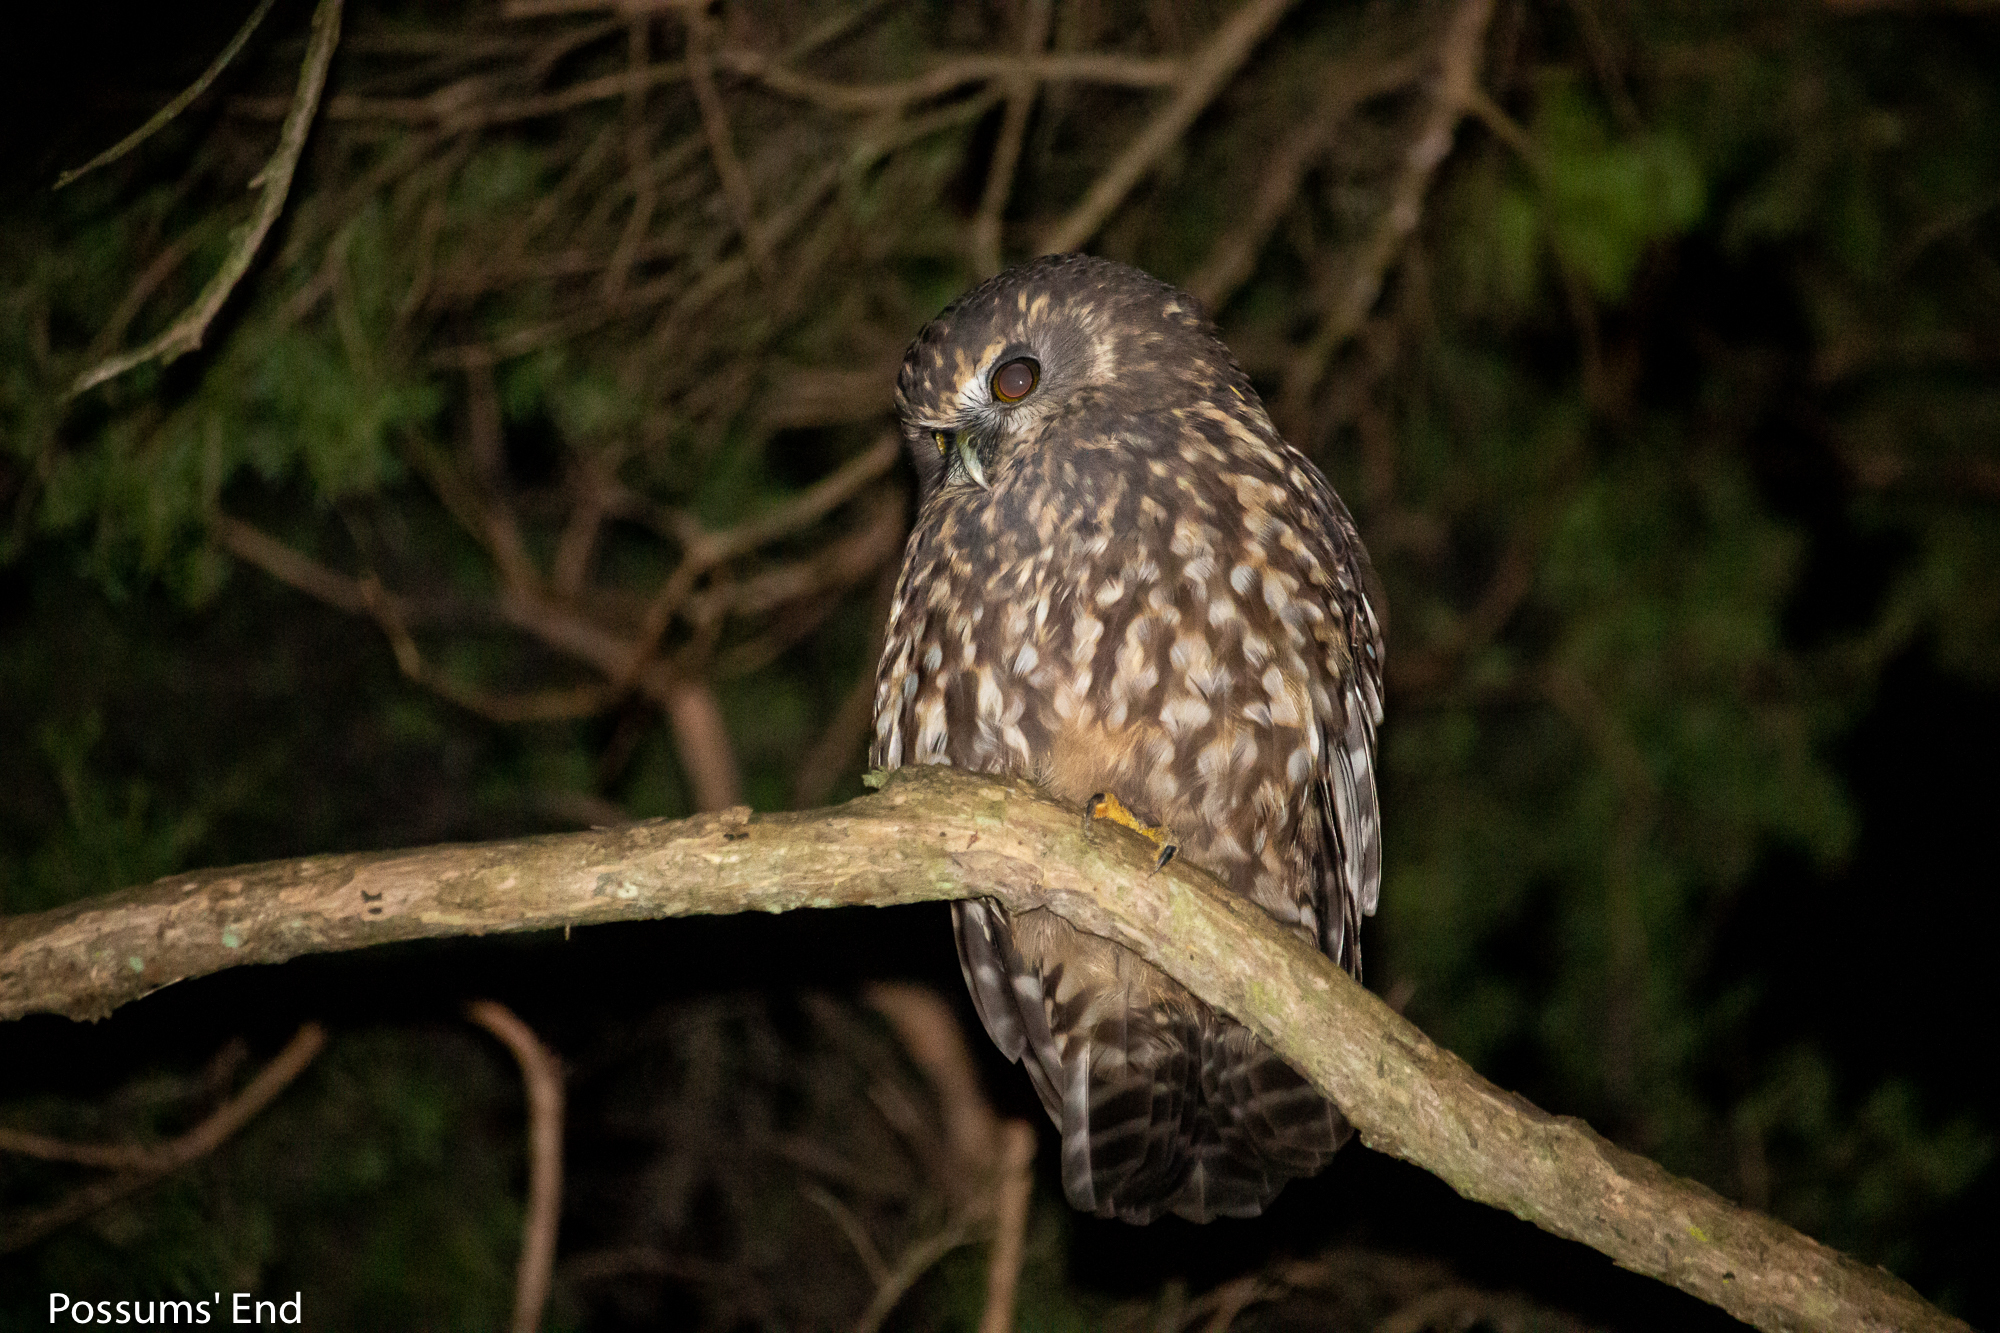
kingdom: Animalia
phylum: Chordata
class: Aves
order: Strigiformes
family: Strigidae
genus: Ninox
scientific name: Ninox novaeseelandiae
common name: Morepork
